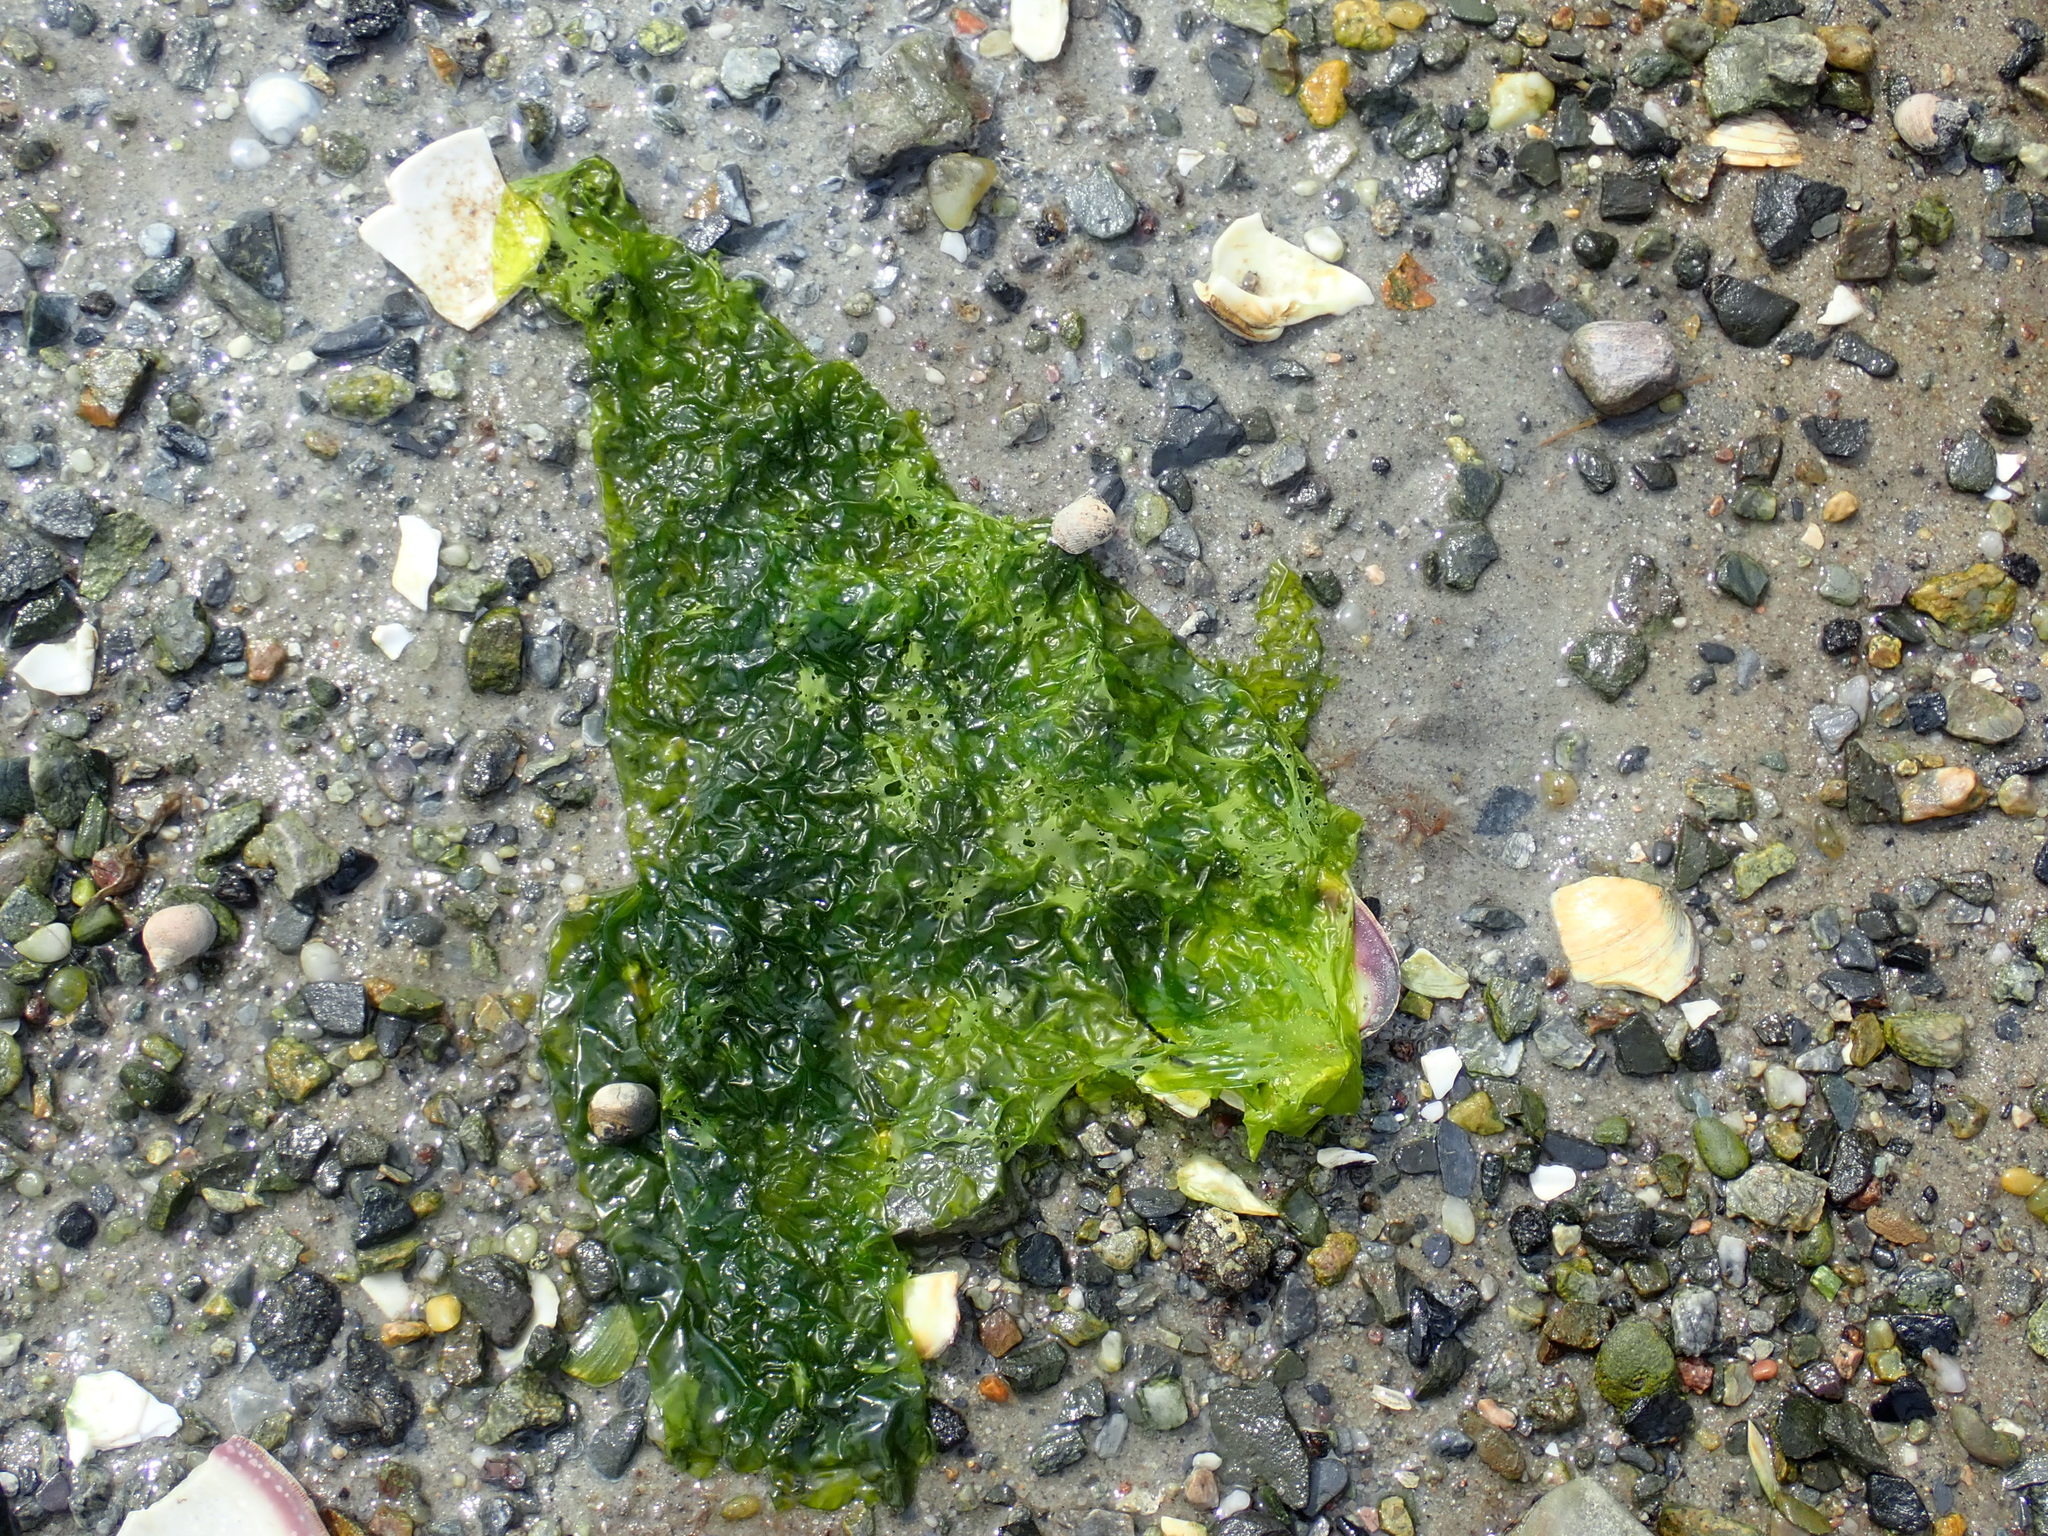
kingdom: Plantae
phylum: Chlorophyta
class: Ulvophyceae
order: Ulvales
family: Ulvaceae
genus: Ulva
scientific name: Ulva lactuca
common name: Sea lettuce
